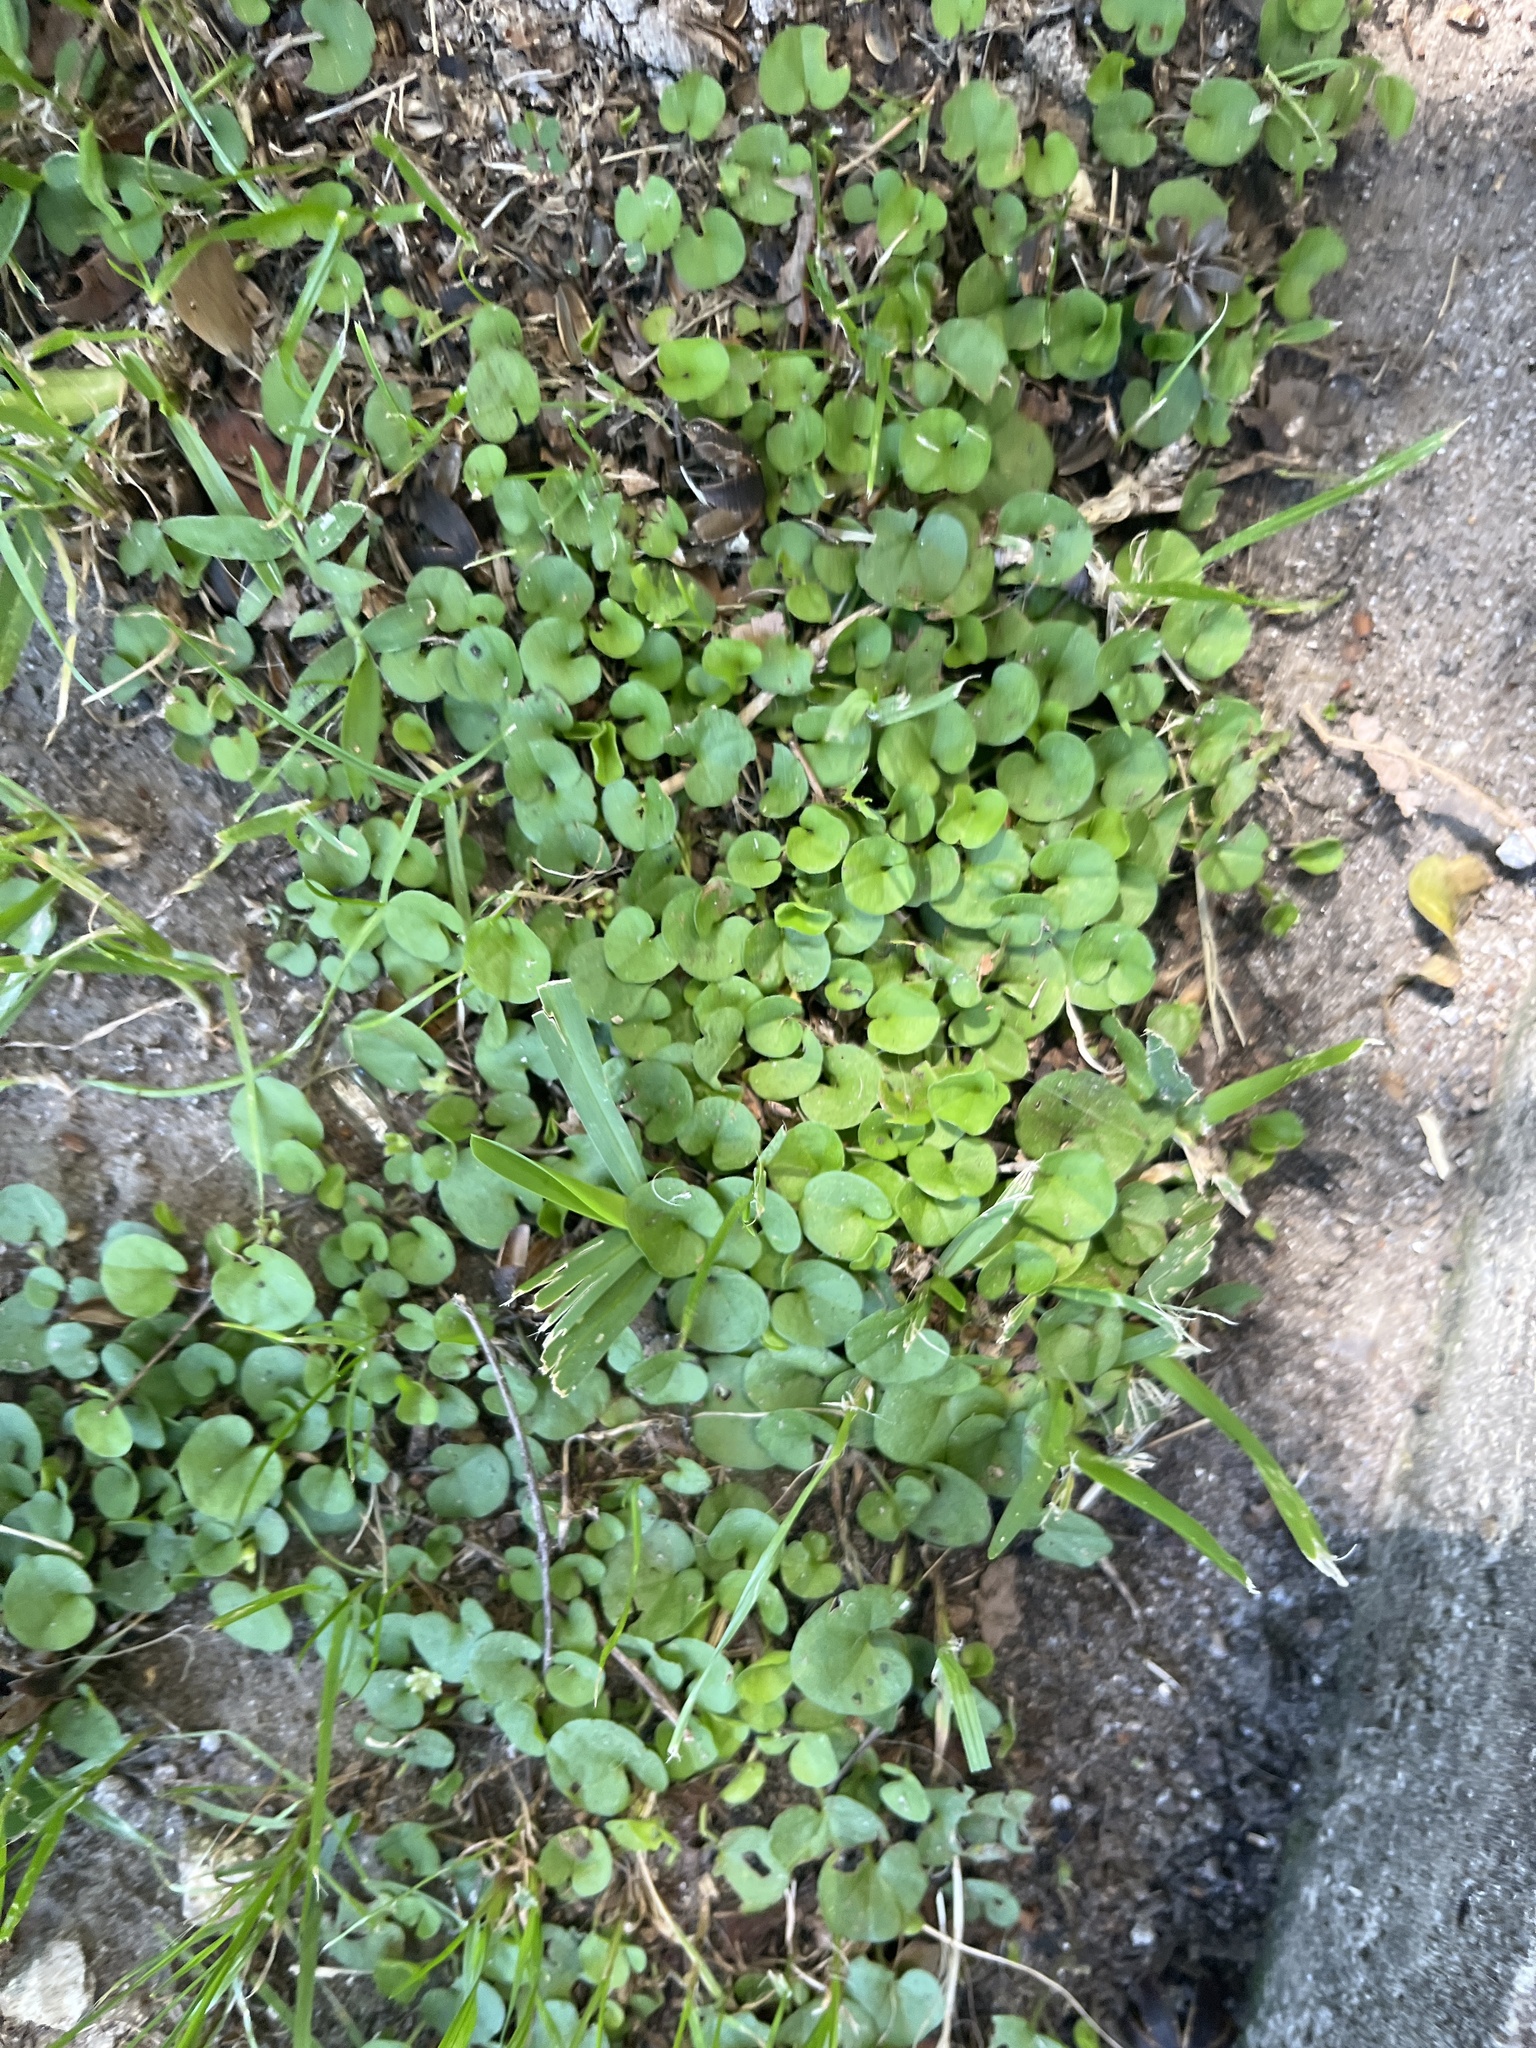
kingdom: Plantae
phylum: Tracheophyta
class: Magnoliopsida
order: Solanales
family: Convolvulaceae
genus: Dichondra
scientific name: Dichondra carolinensis
